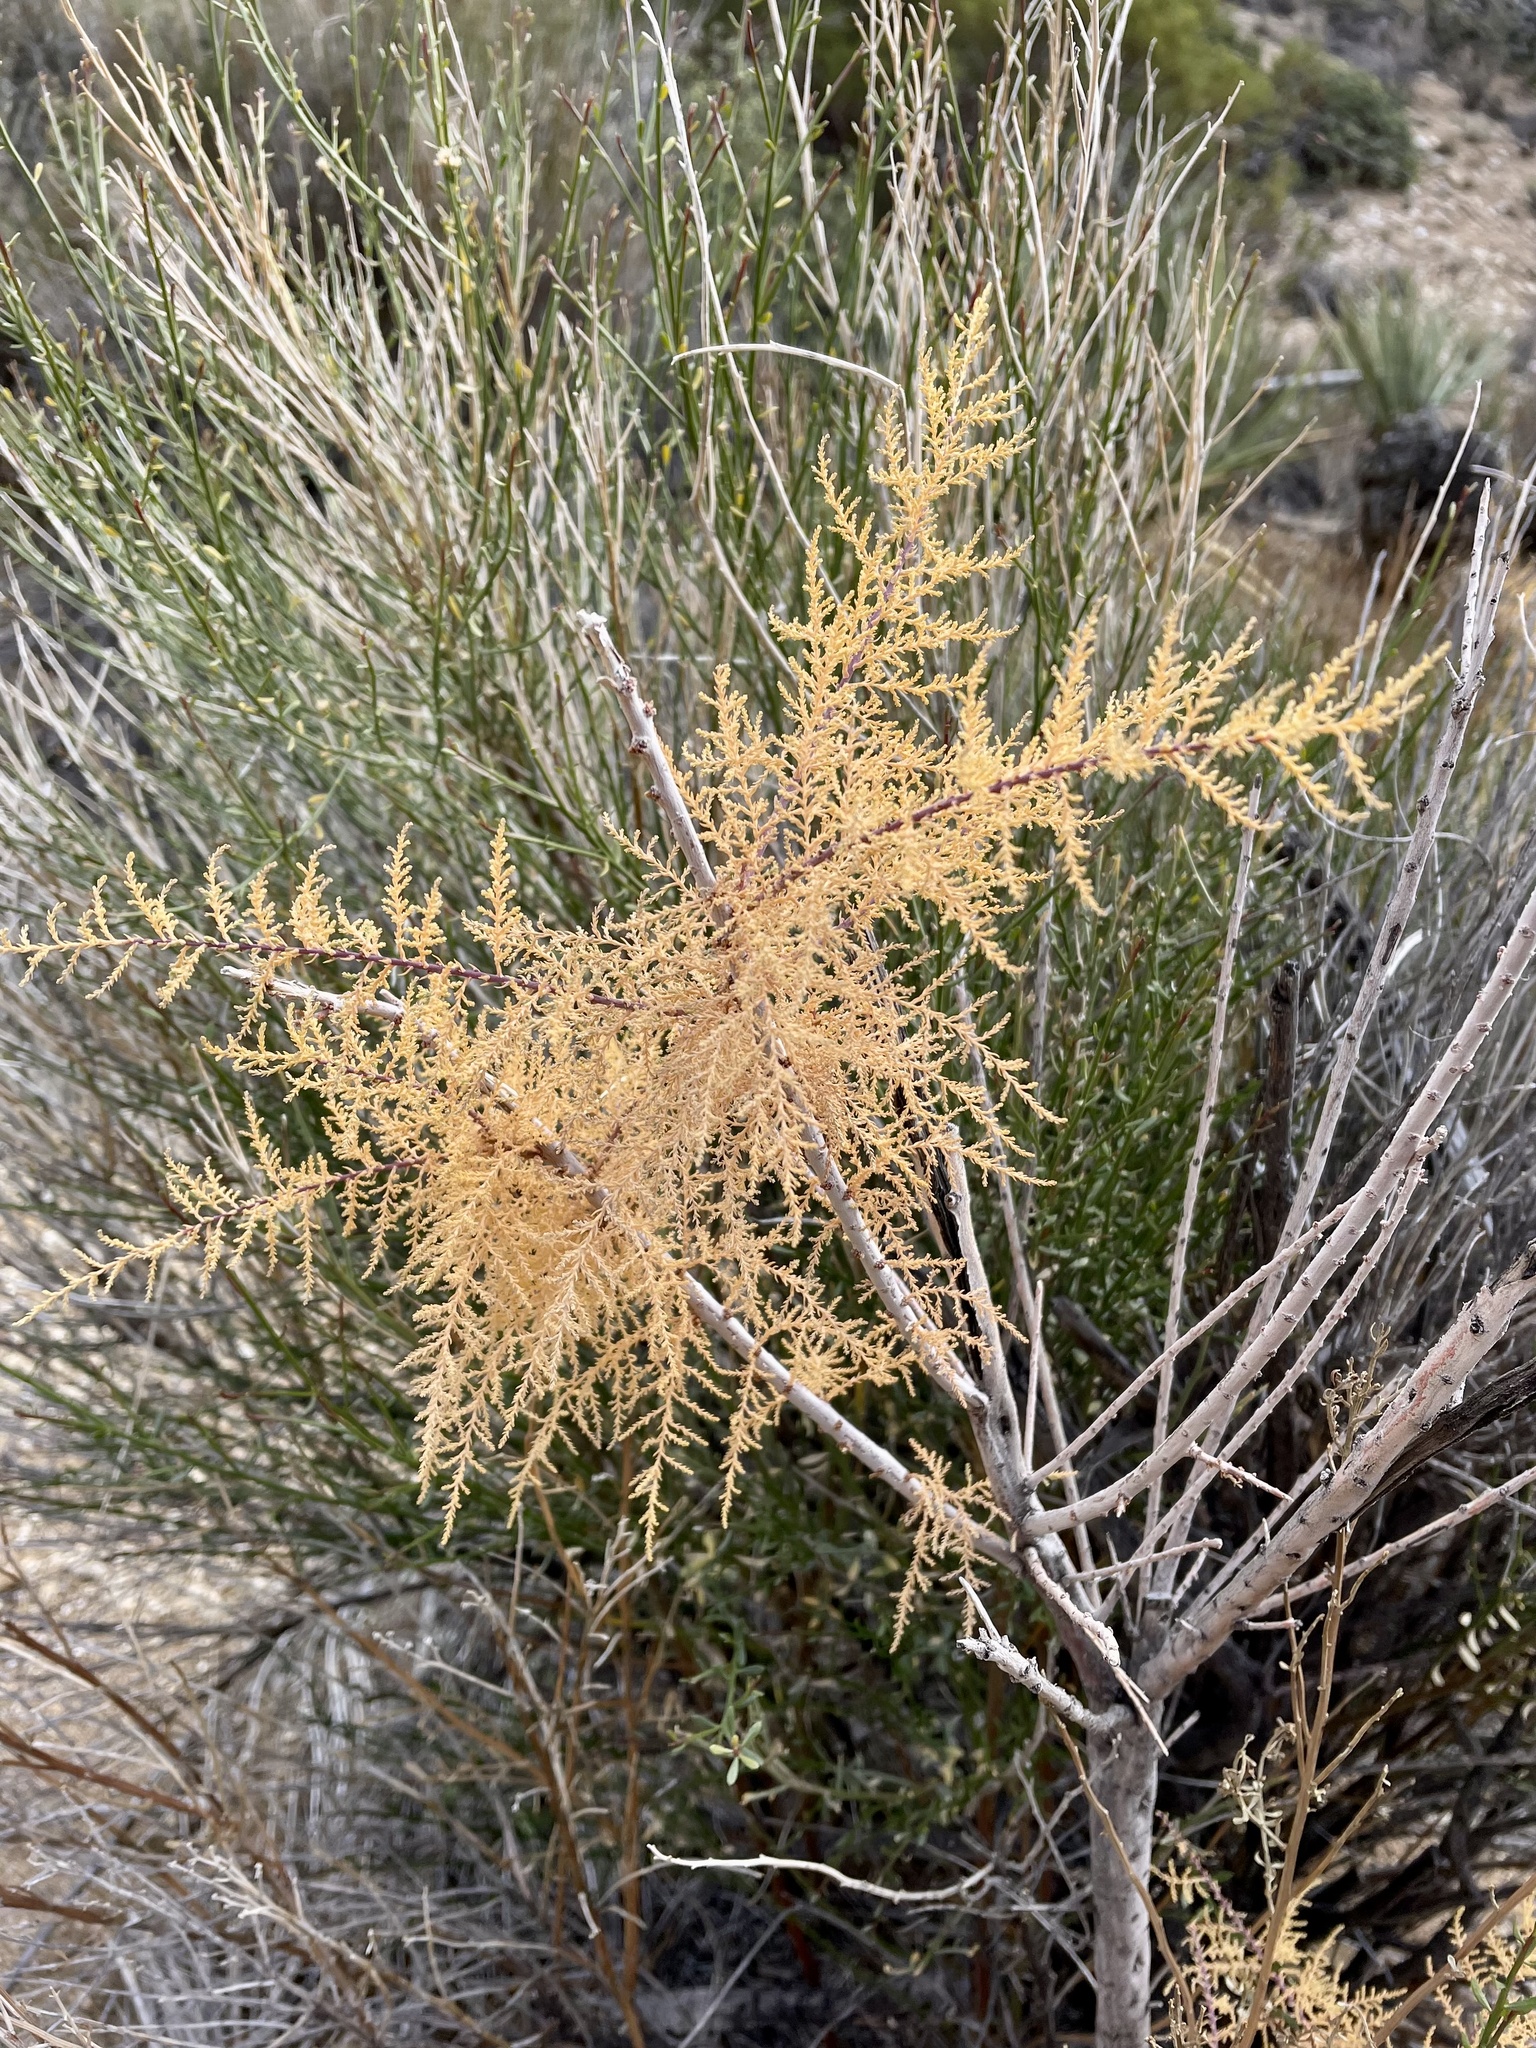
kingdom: Plantae
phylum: Tracheophyta
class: Magnoliopsida
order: Caryophyllales
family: Tamaricaceae
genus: Tamarix
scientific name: Tamarix ramosissima
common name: Pink tamarisk
